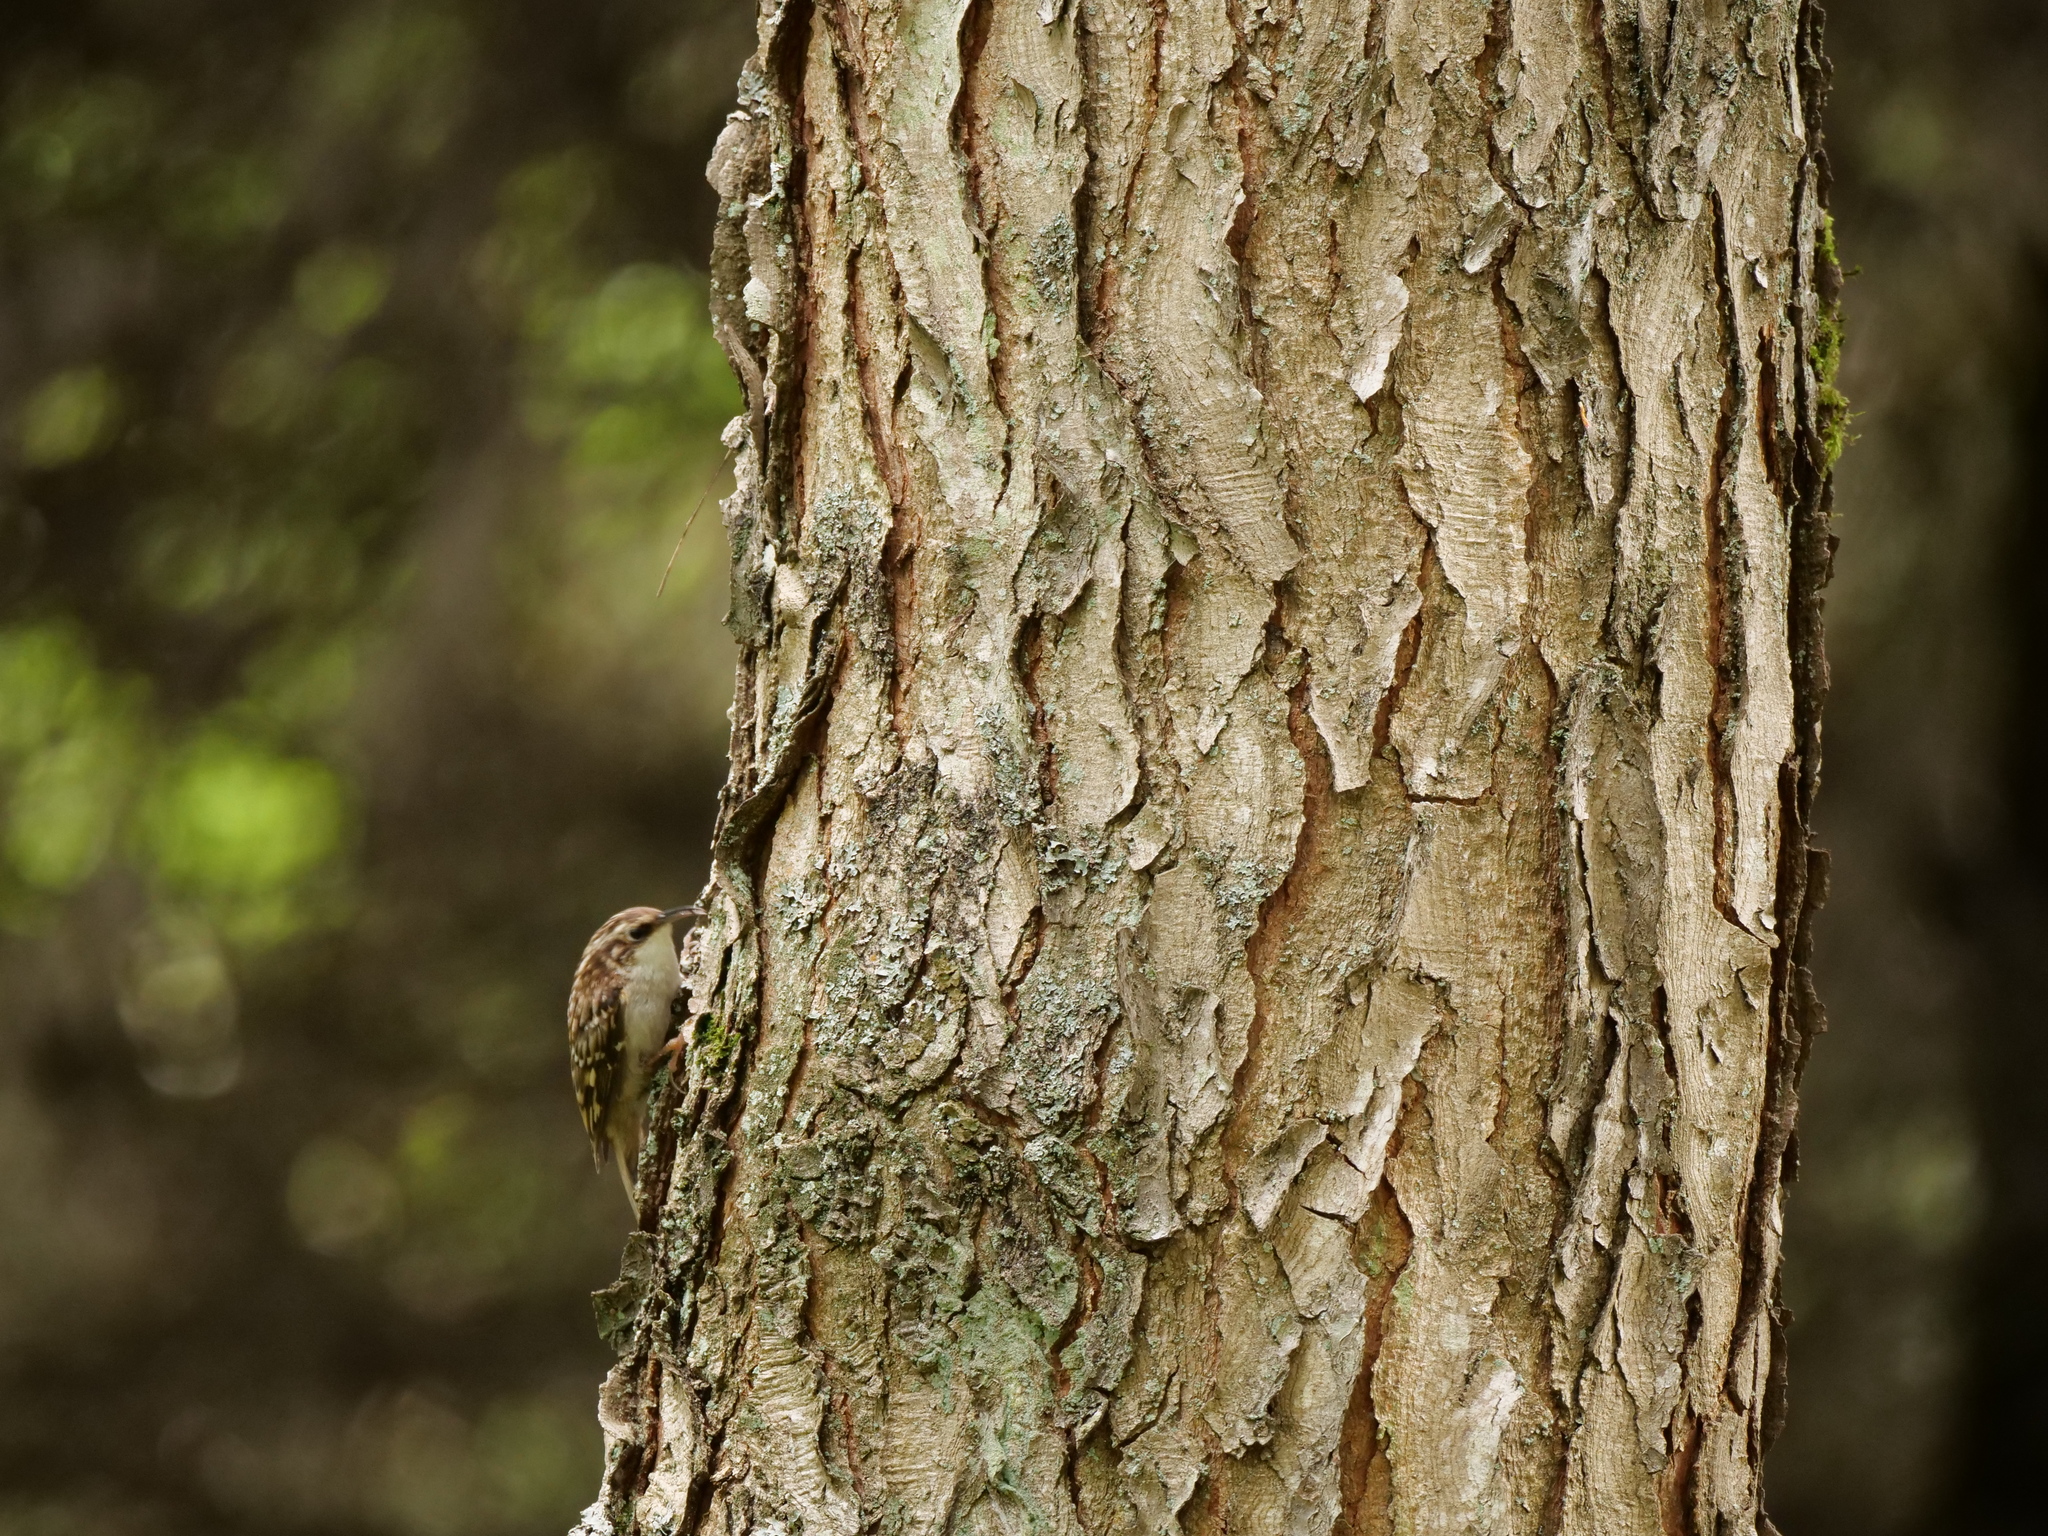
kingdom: Animalia
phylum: Chordata
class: Aves
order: Passeriformes
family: Certhiidae
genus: Certhia
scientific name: Certhia americana
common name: Brown creeper
